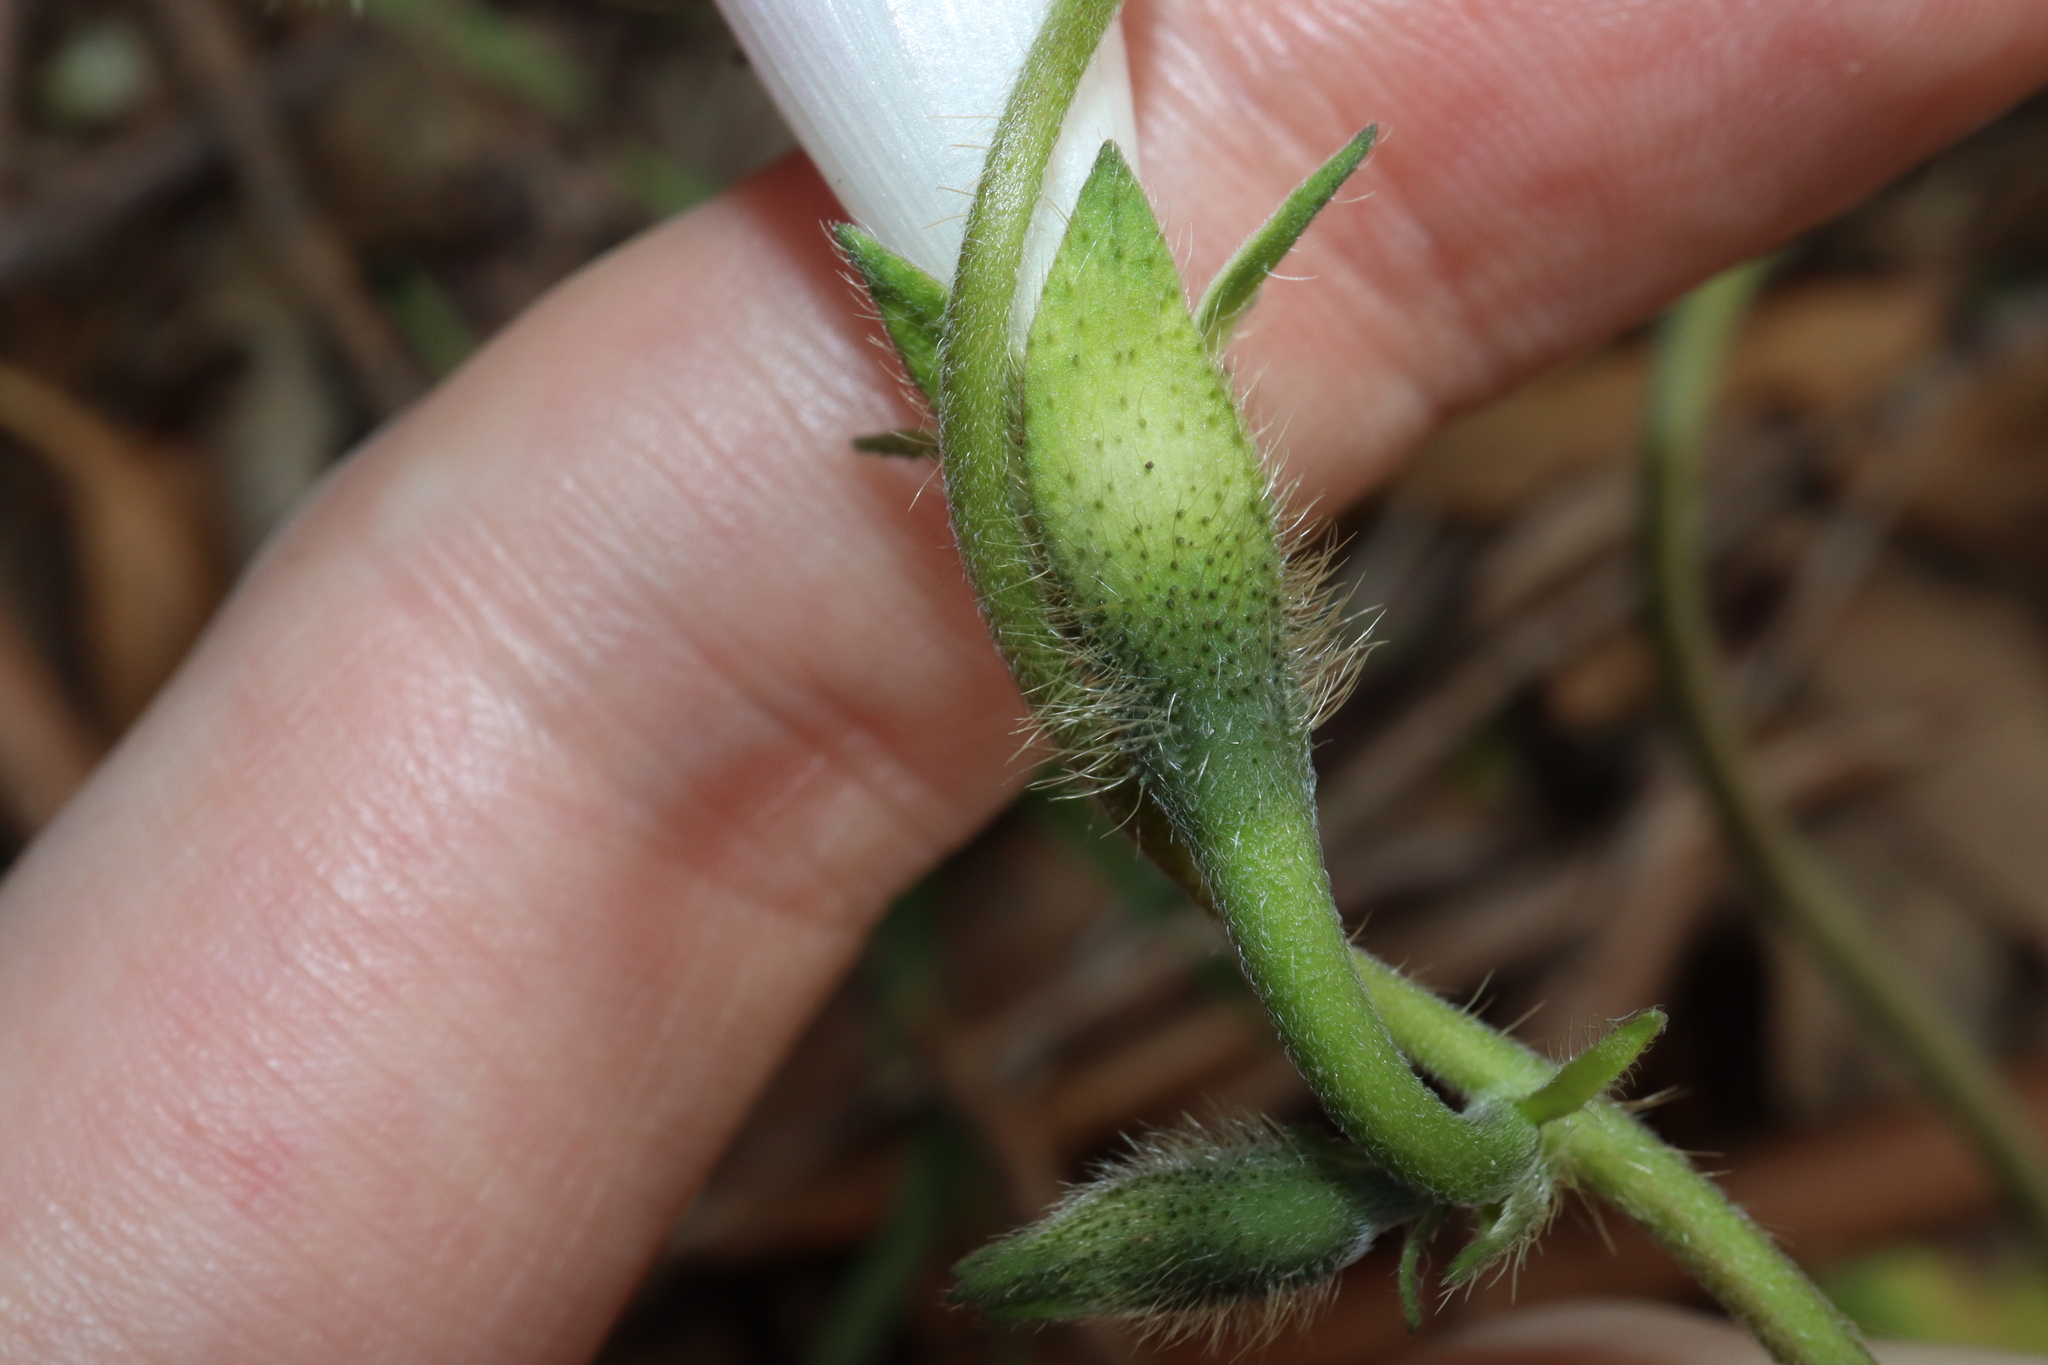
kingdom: Plantae
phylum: Tracheophyta
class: Magnoliopsida
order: Solanales
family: Convolvulaceae
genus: Ipomoea
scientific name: Ipomoea purpurea
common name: Common morning-glory
